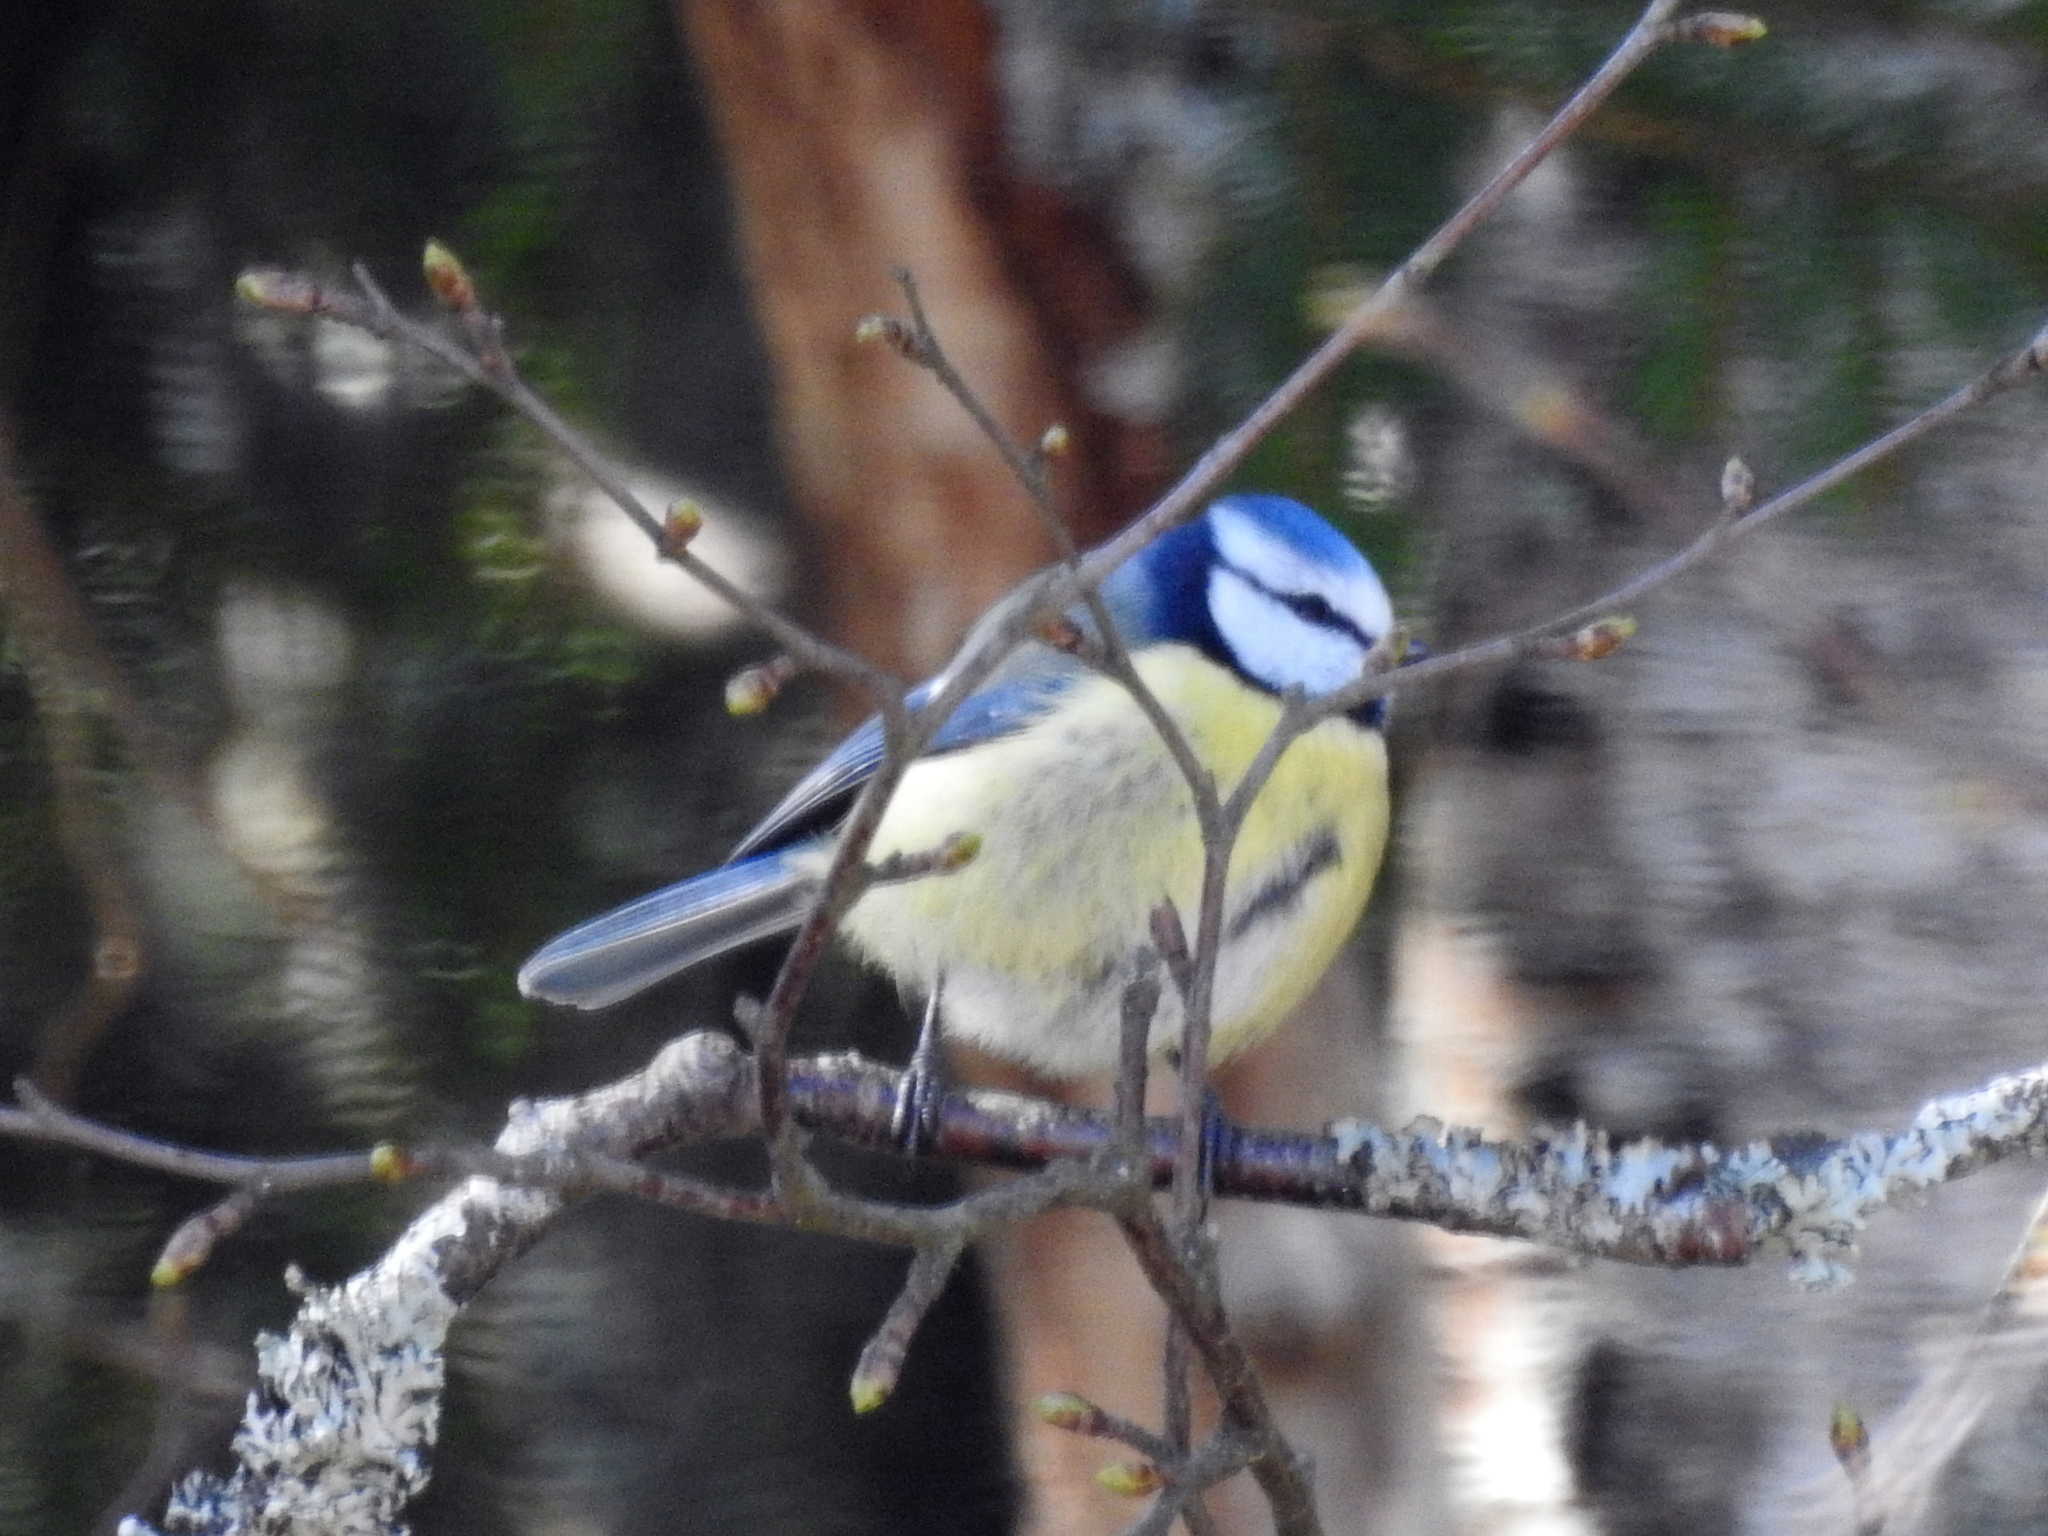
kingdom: Animalia
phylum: Chordata
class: Aves
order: Passeriformes
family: Paridae
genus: Cyanistes
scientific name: Cyanistes caeruleus
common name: Eurasian blue tit
